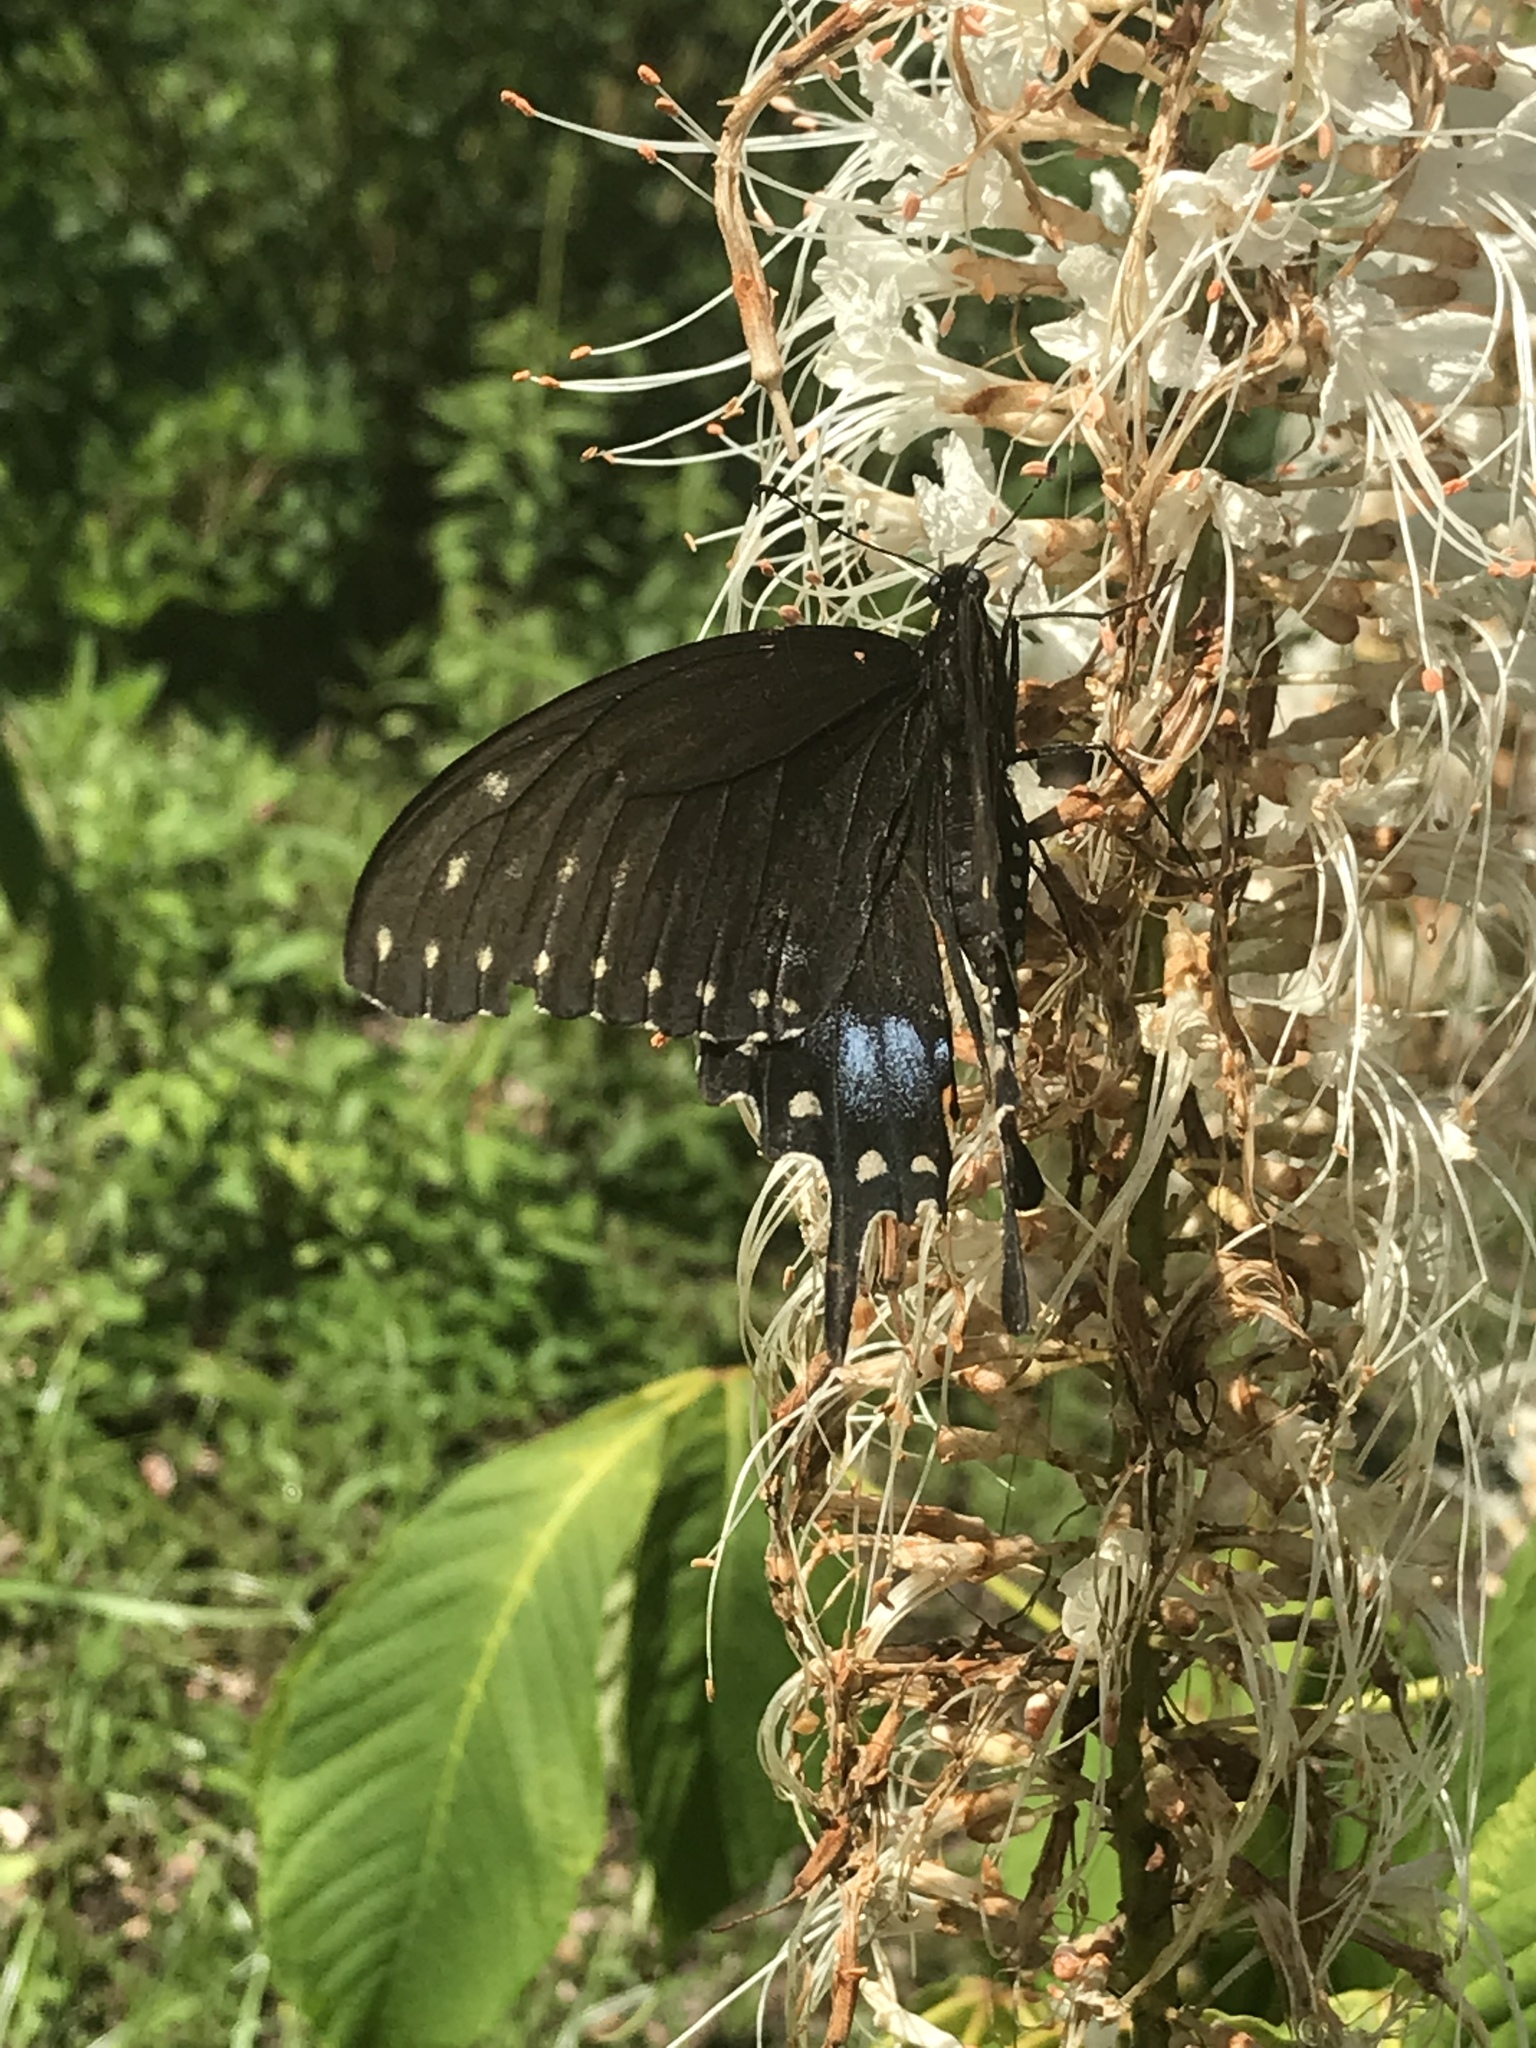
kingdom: Animalia
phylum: Arthropoda
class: Insecta
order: Lepidoptera
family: Papilionidae
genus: Papilio
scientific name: Papilio polyxenes
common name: Black swallowtail
